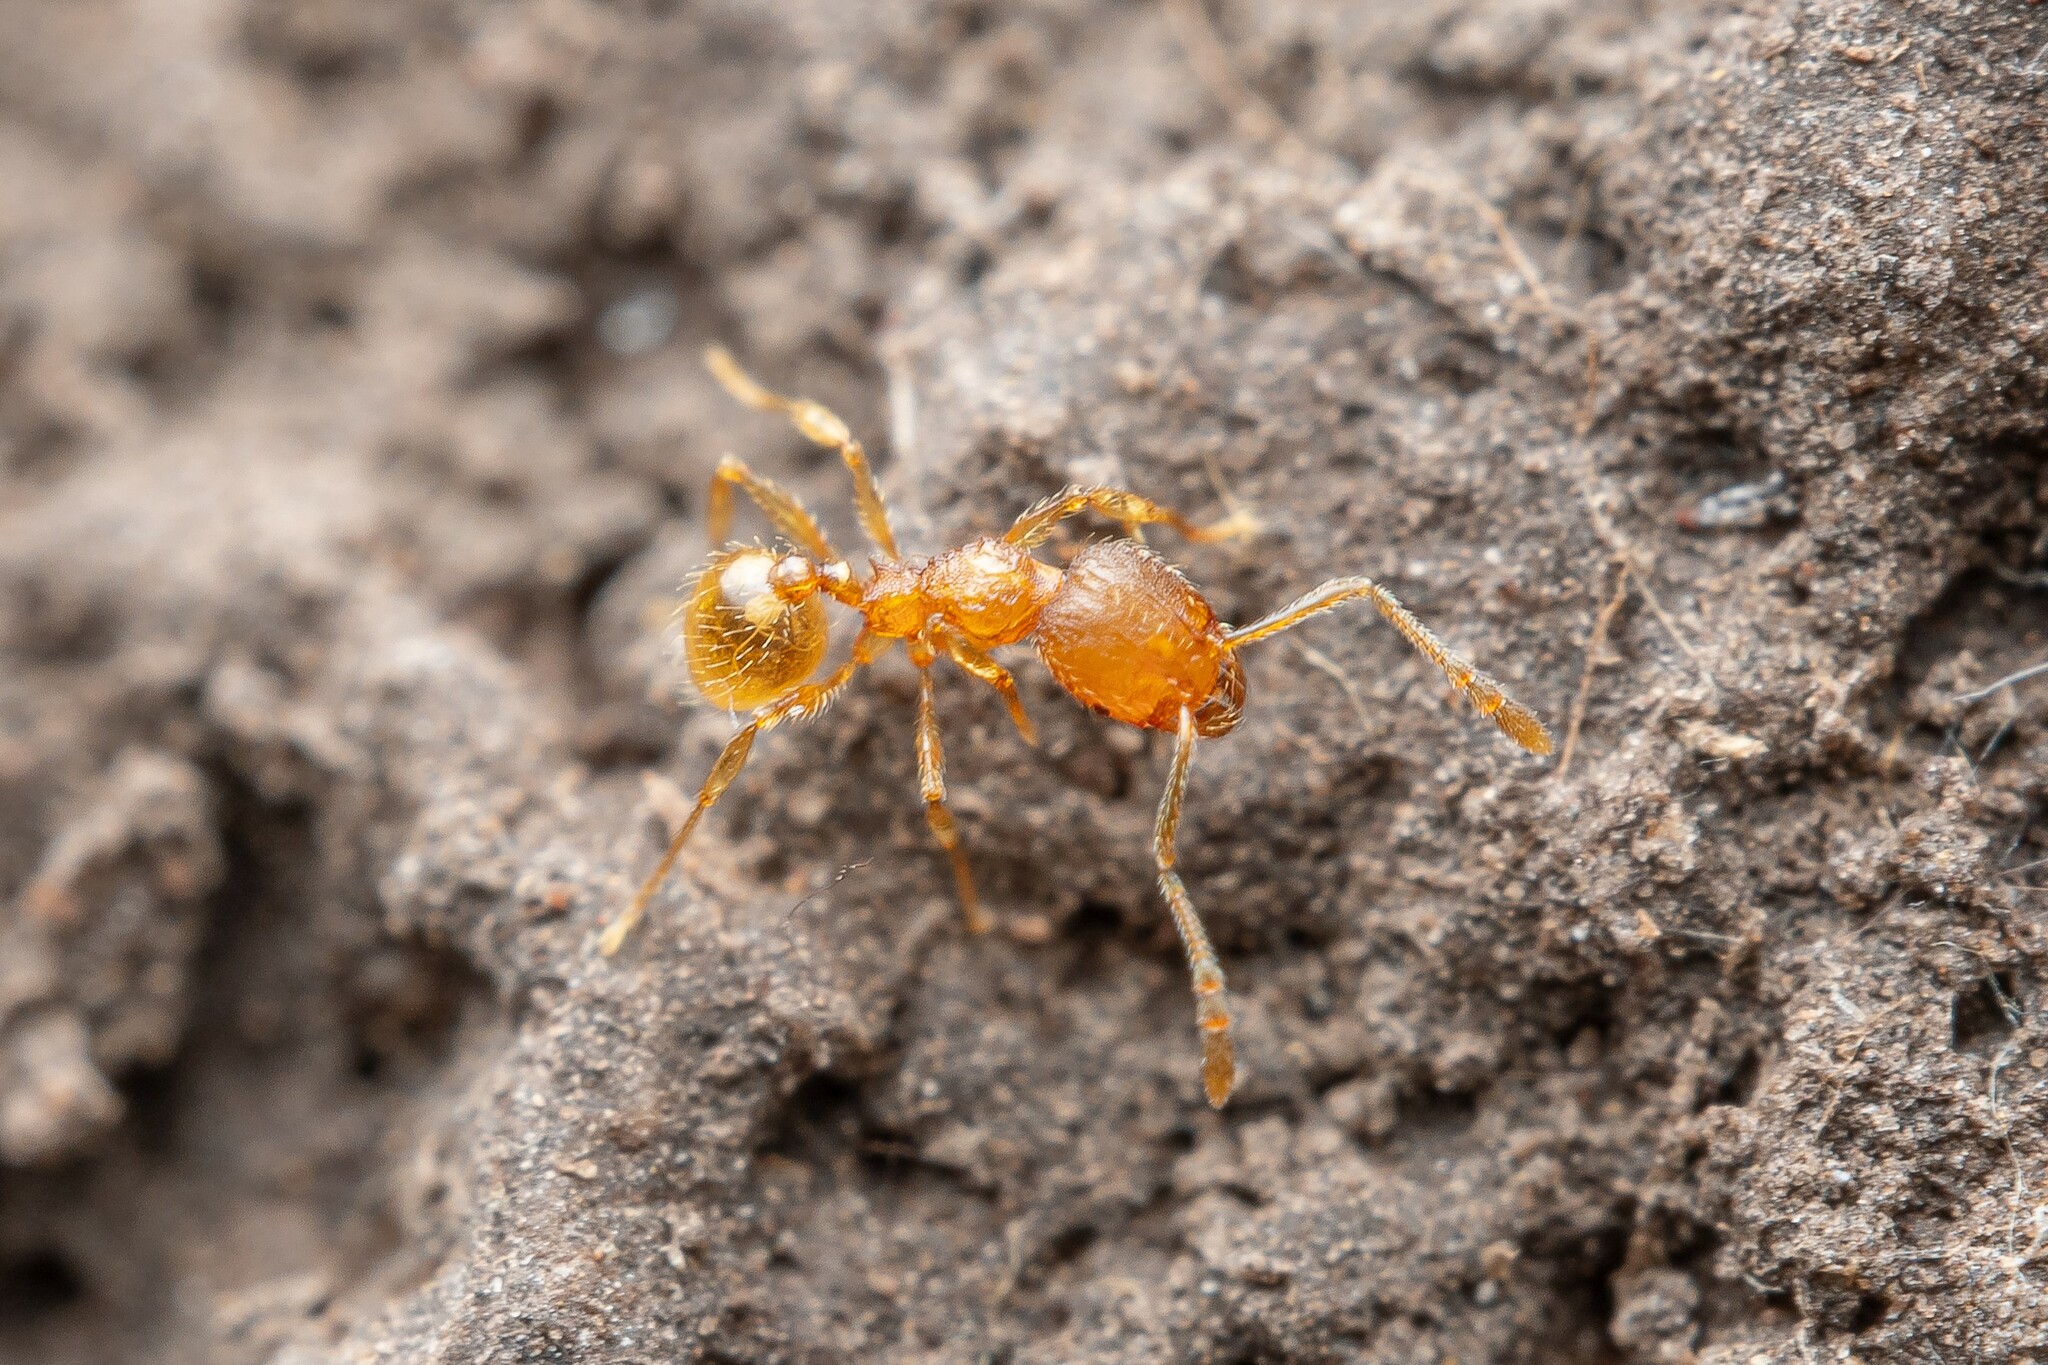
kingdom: Animalia
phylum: Arthropoda
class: Insecta
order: Hymenoptera
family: Formicidae
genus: Pheidole
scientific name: Pheidole furtiva
